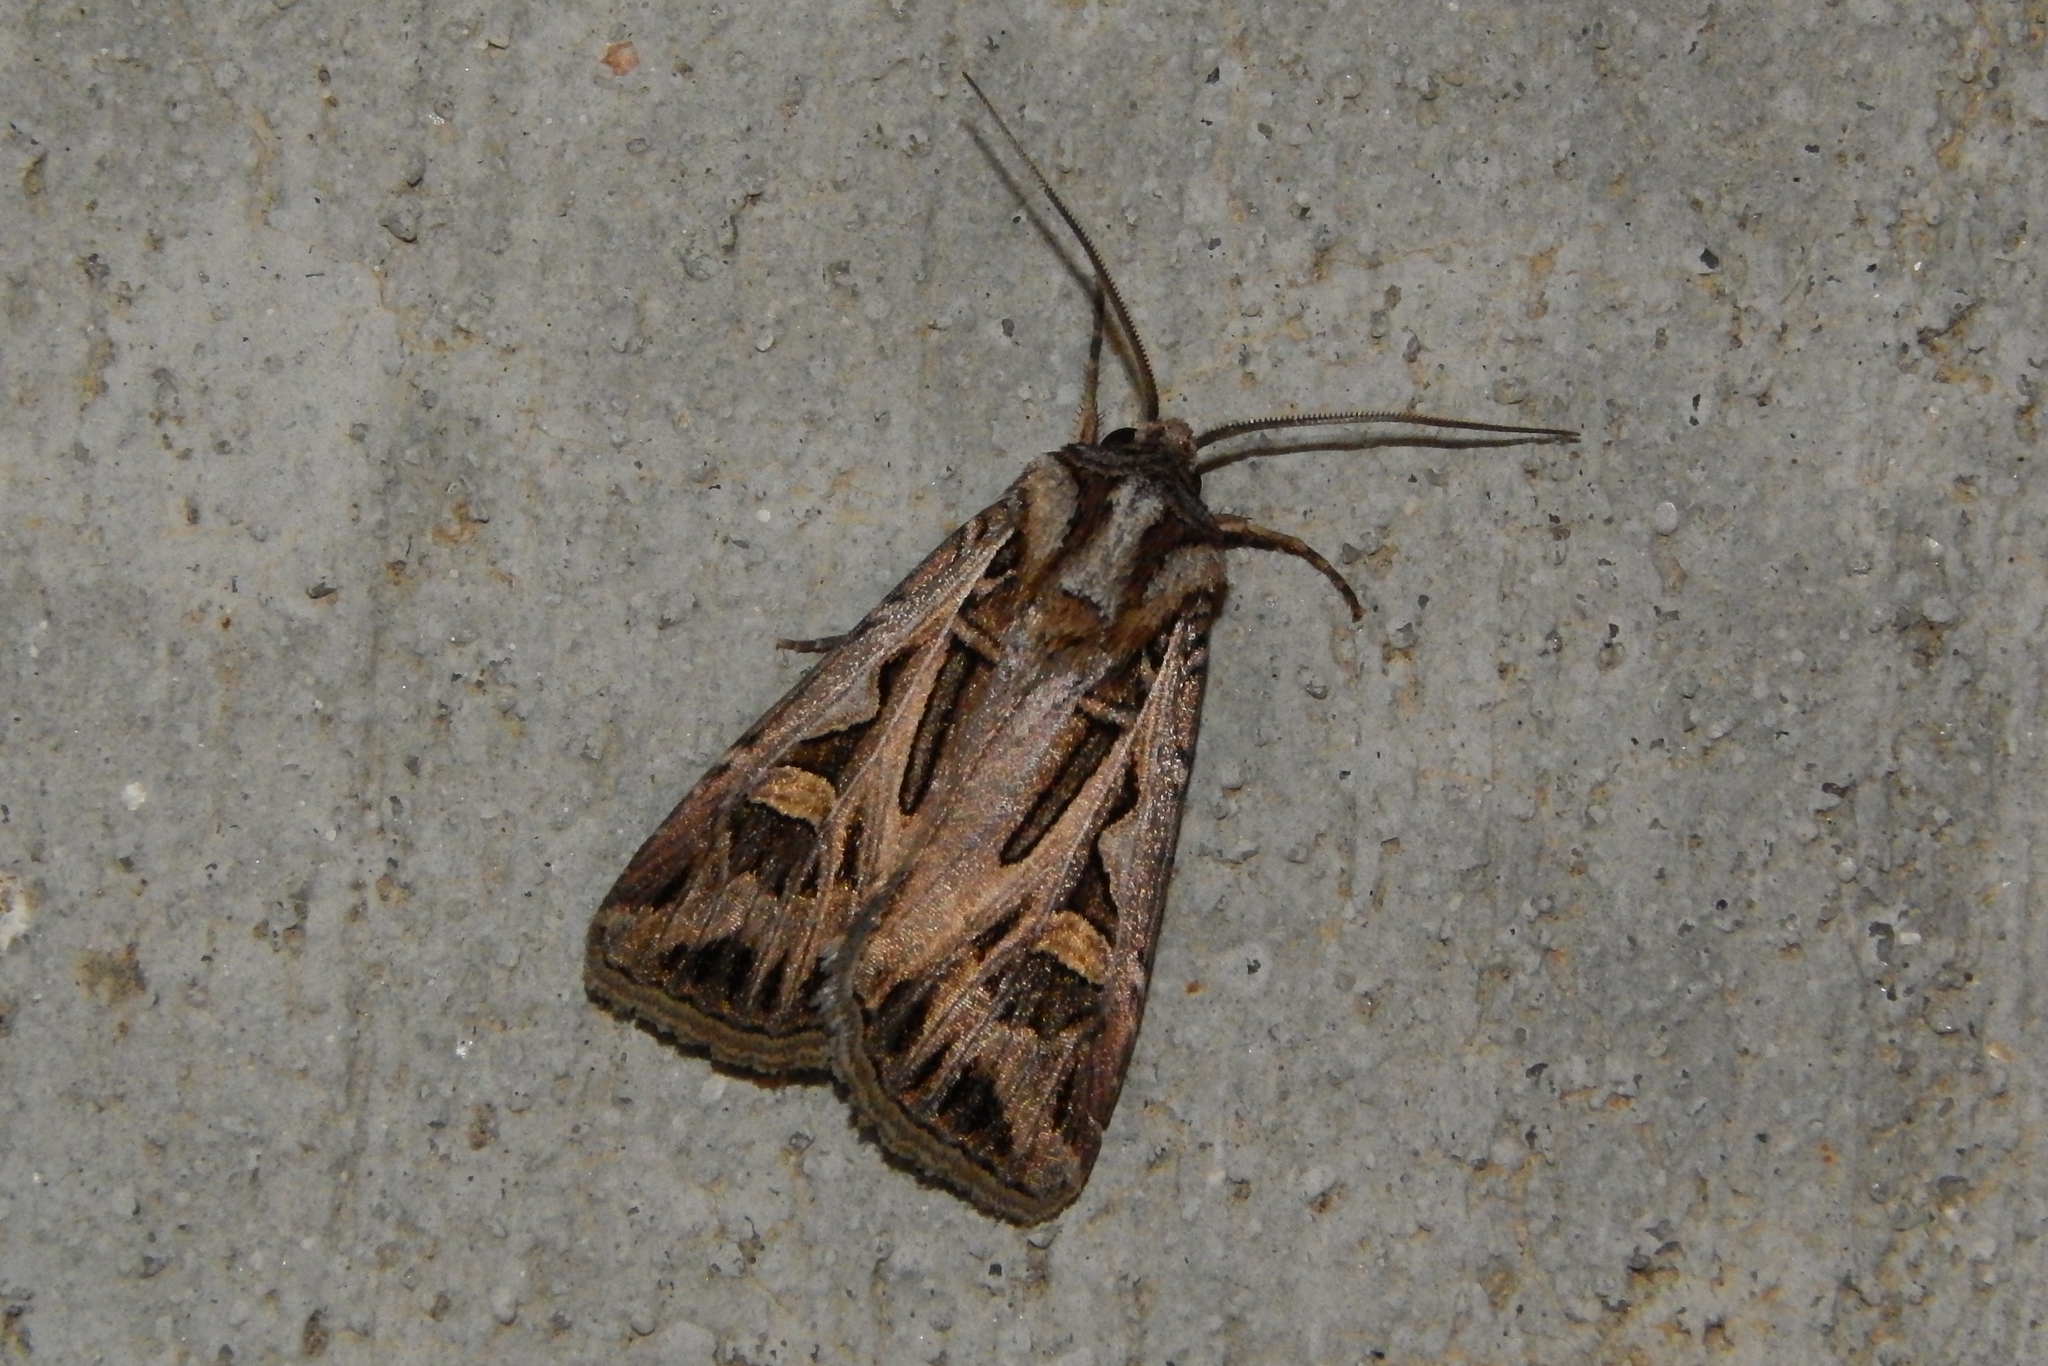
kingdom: Animalia
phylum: Arthropoda
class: Insecta
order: Lepidoptera
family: Noctuidae
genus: Feltia
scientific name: Feltia jaculifera
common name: Dingy cutworm moth
